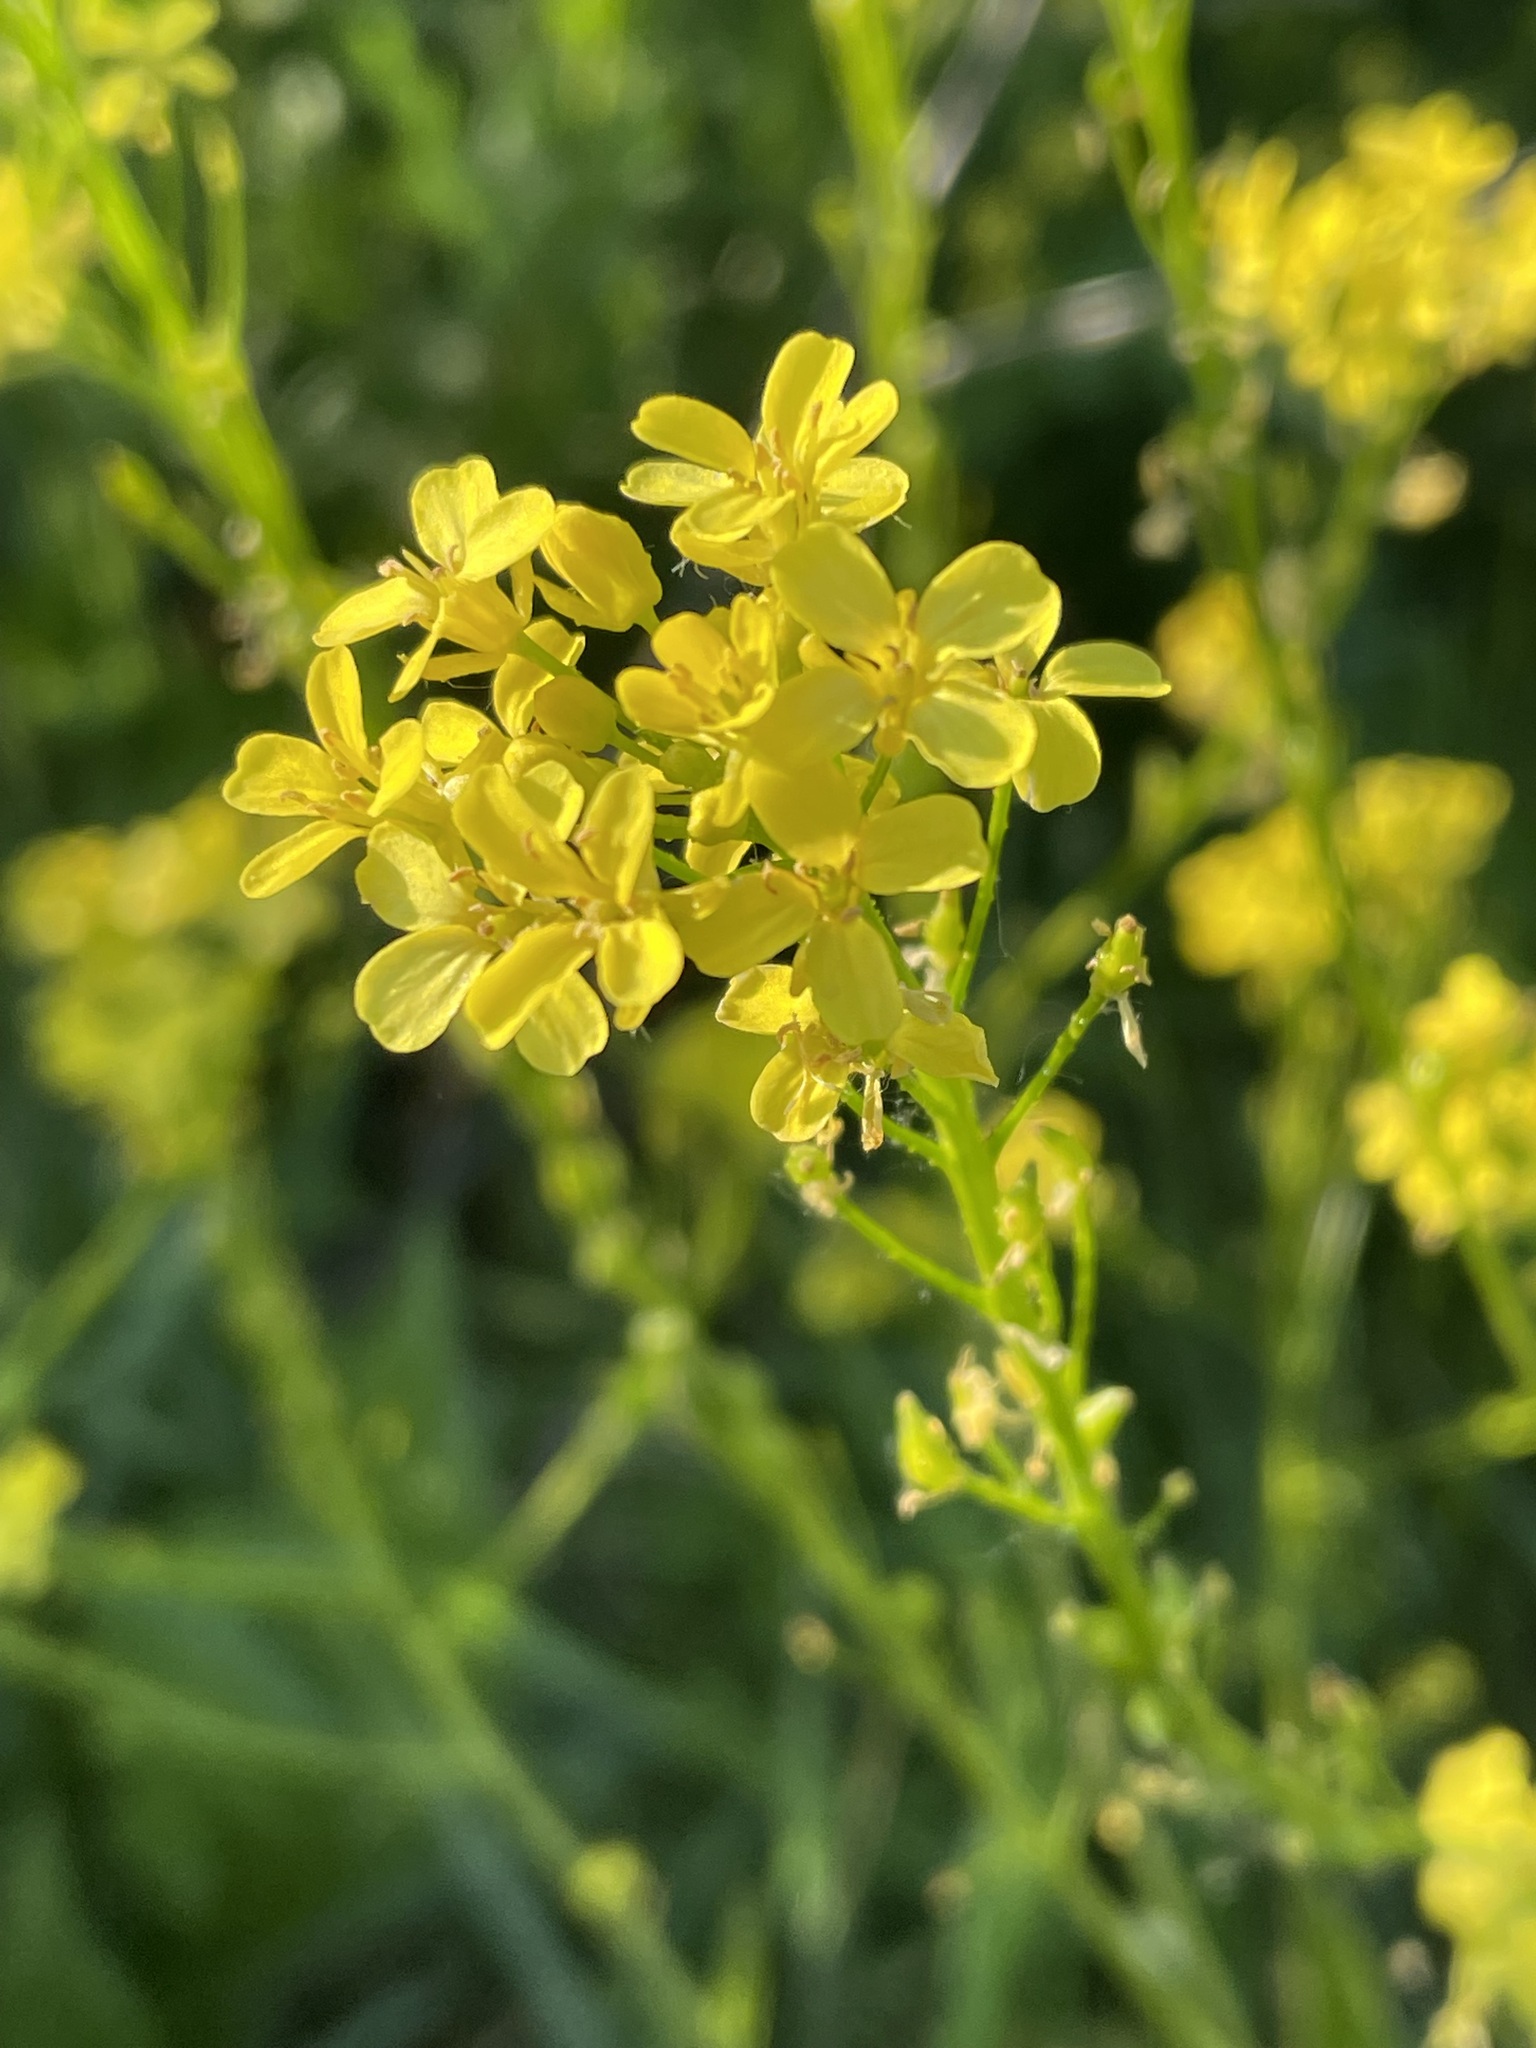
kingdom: Plantae
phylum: Tracheophyta
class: Magnoliopsida
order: Brassicales
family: Brassicaceae
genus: Bunias
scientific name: Bunias orientalis
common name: Warty-cabbage
